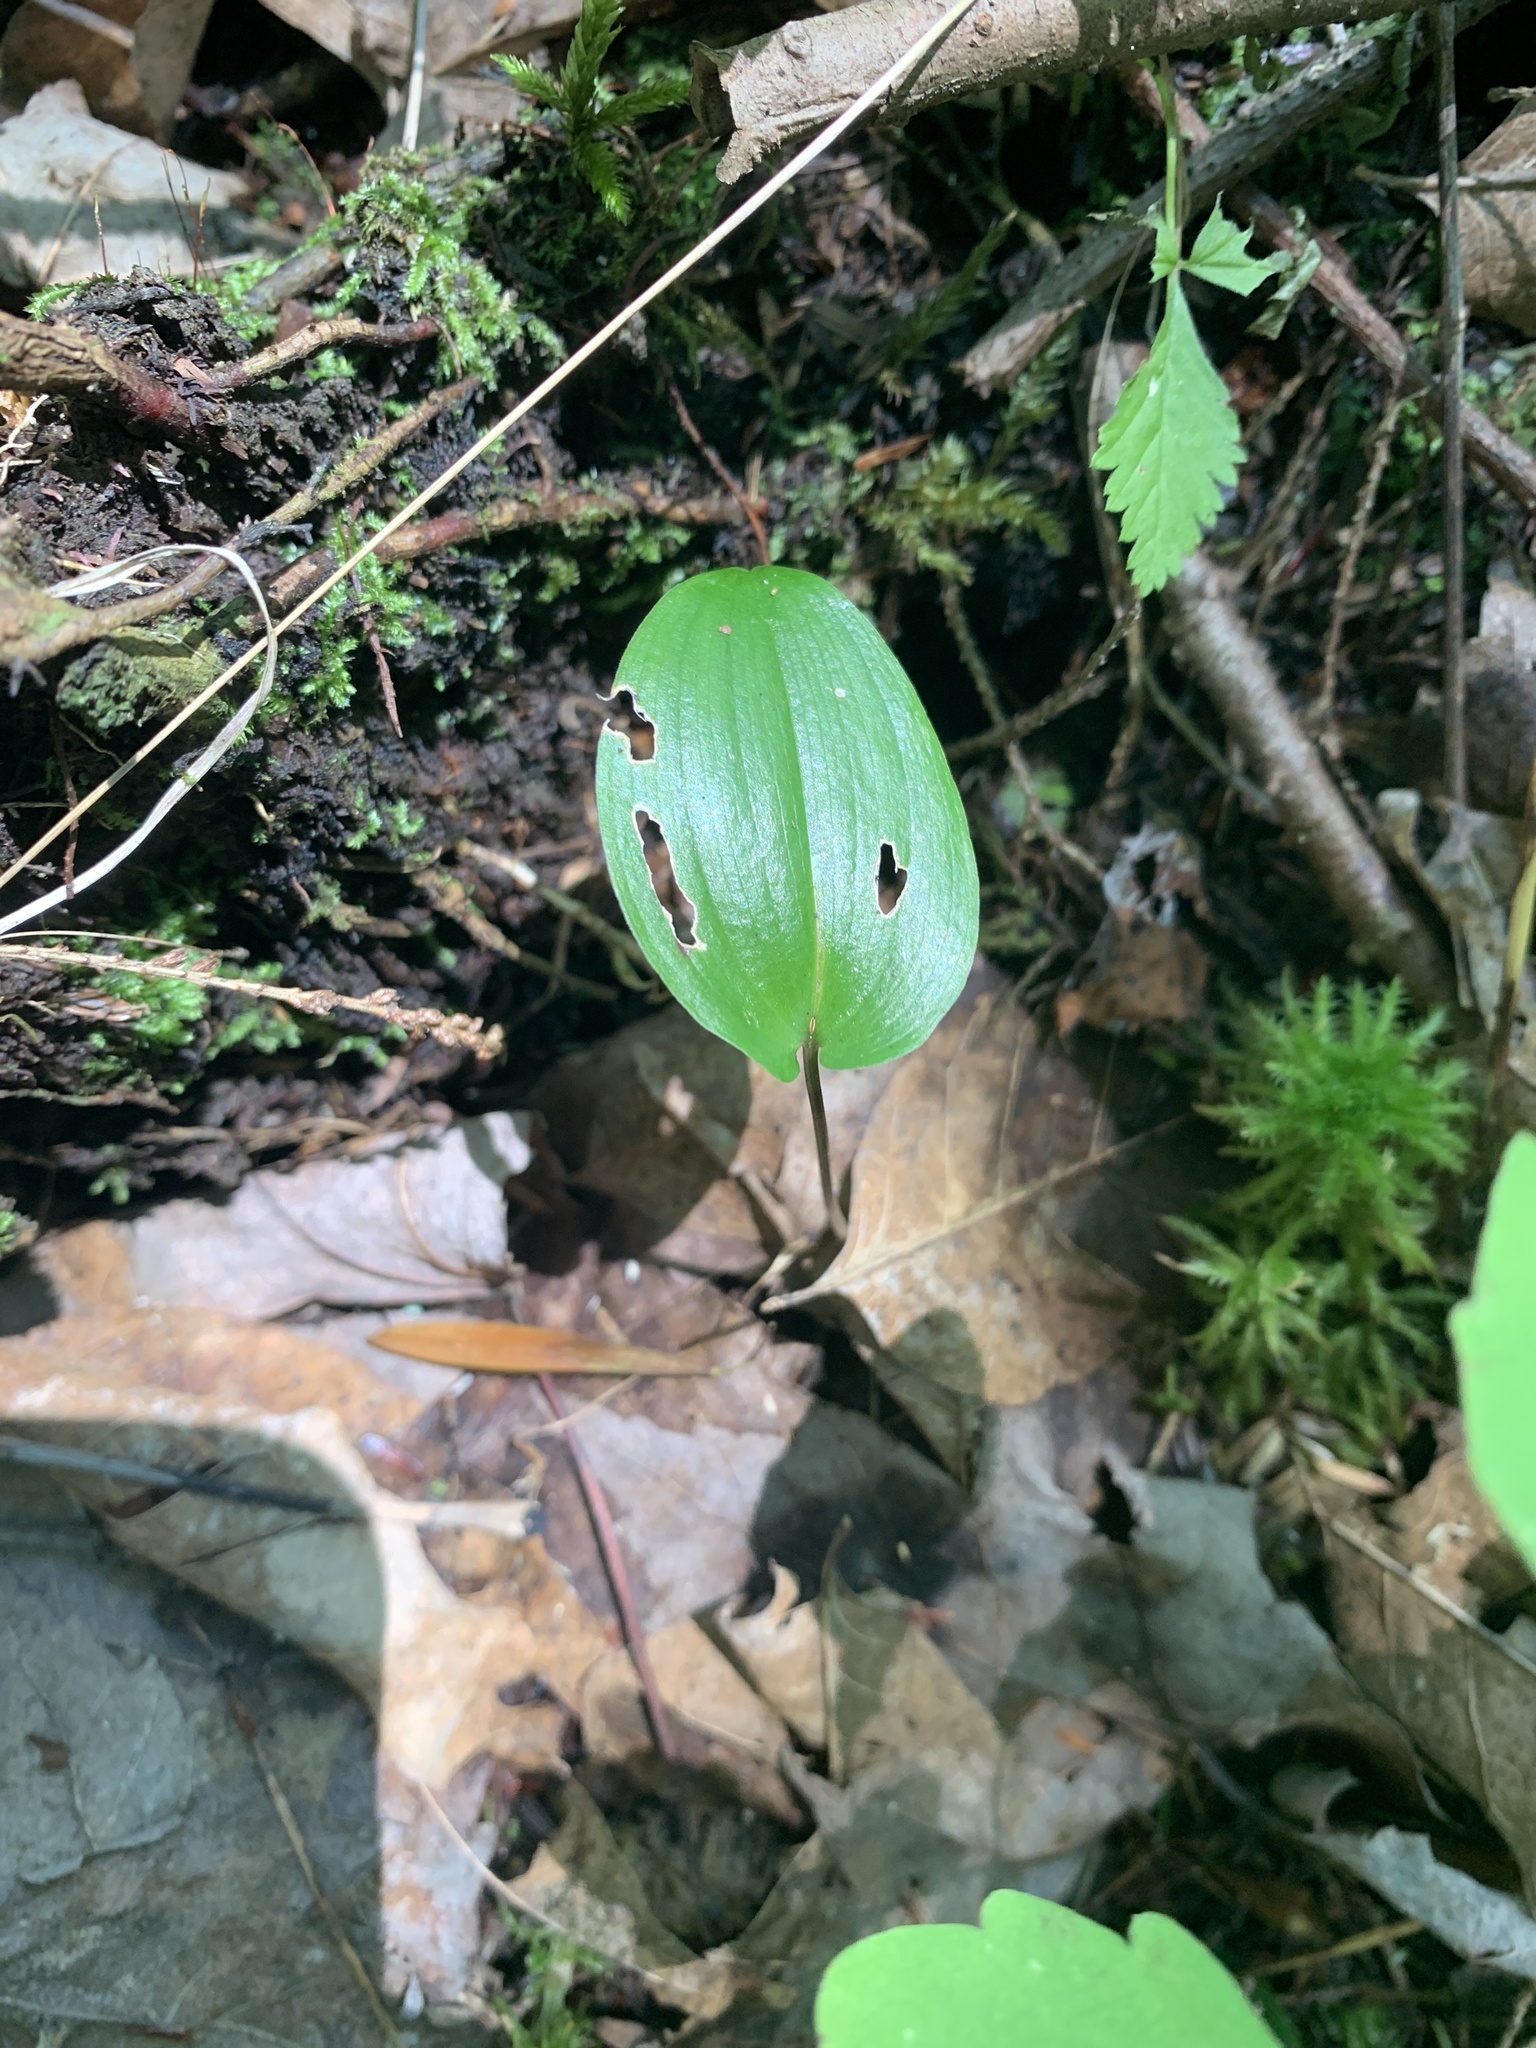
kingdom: Plantae
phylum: Tracheophyta
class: Liliopsida
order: Asparagales
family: Asparagaceae
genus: Maianthemum
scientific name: Maianthemum canadense
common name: False lily-of-the-valley
